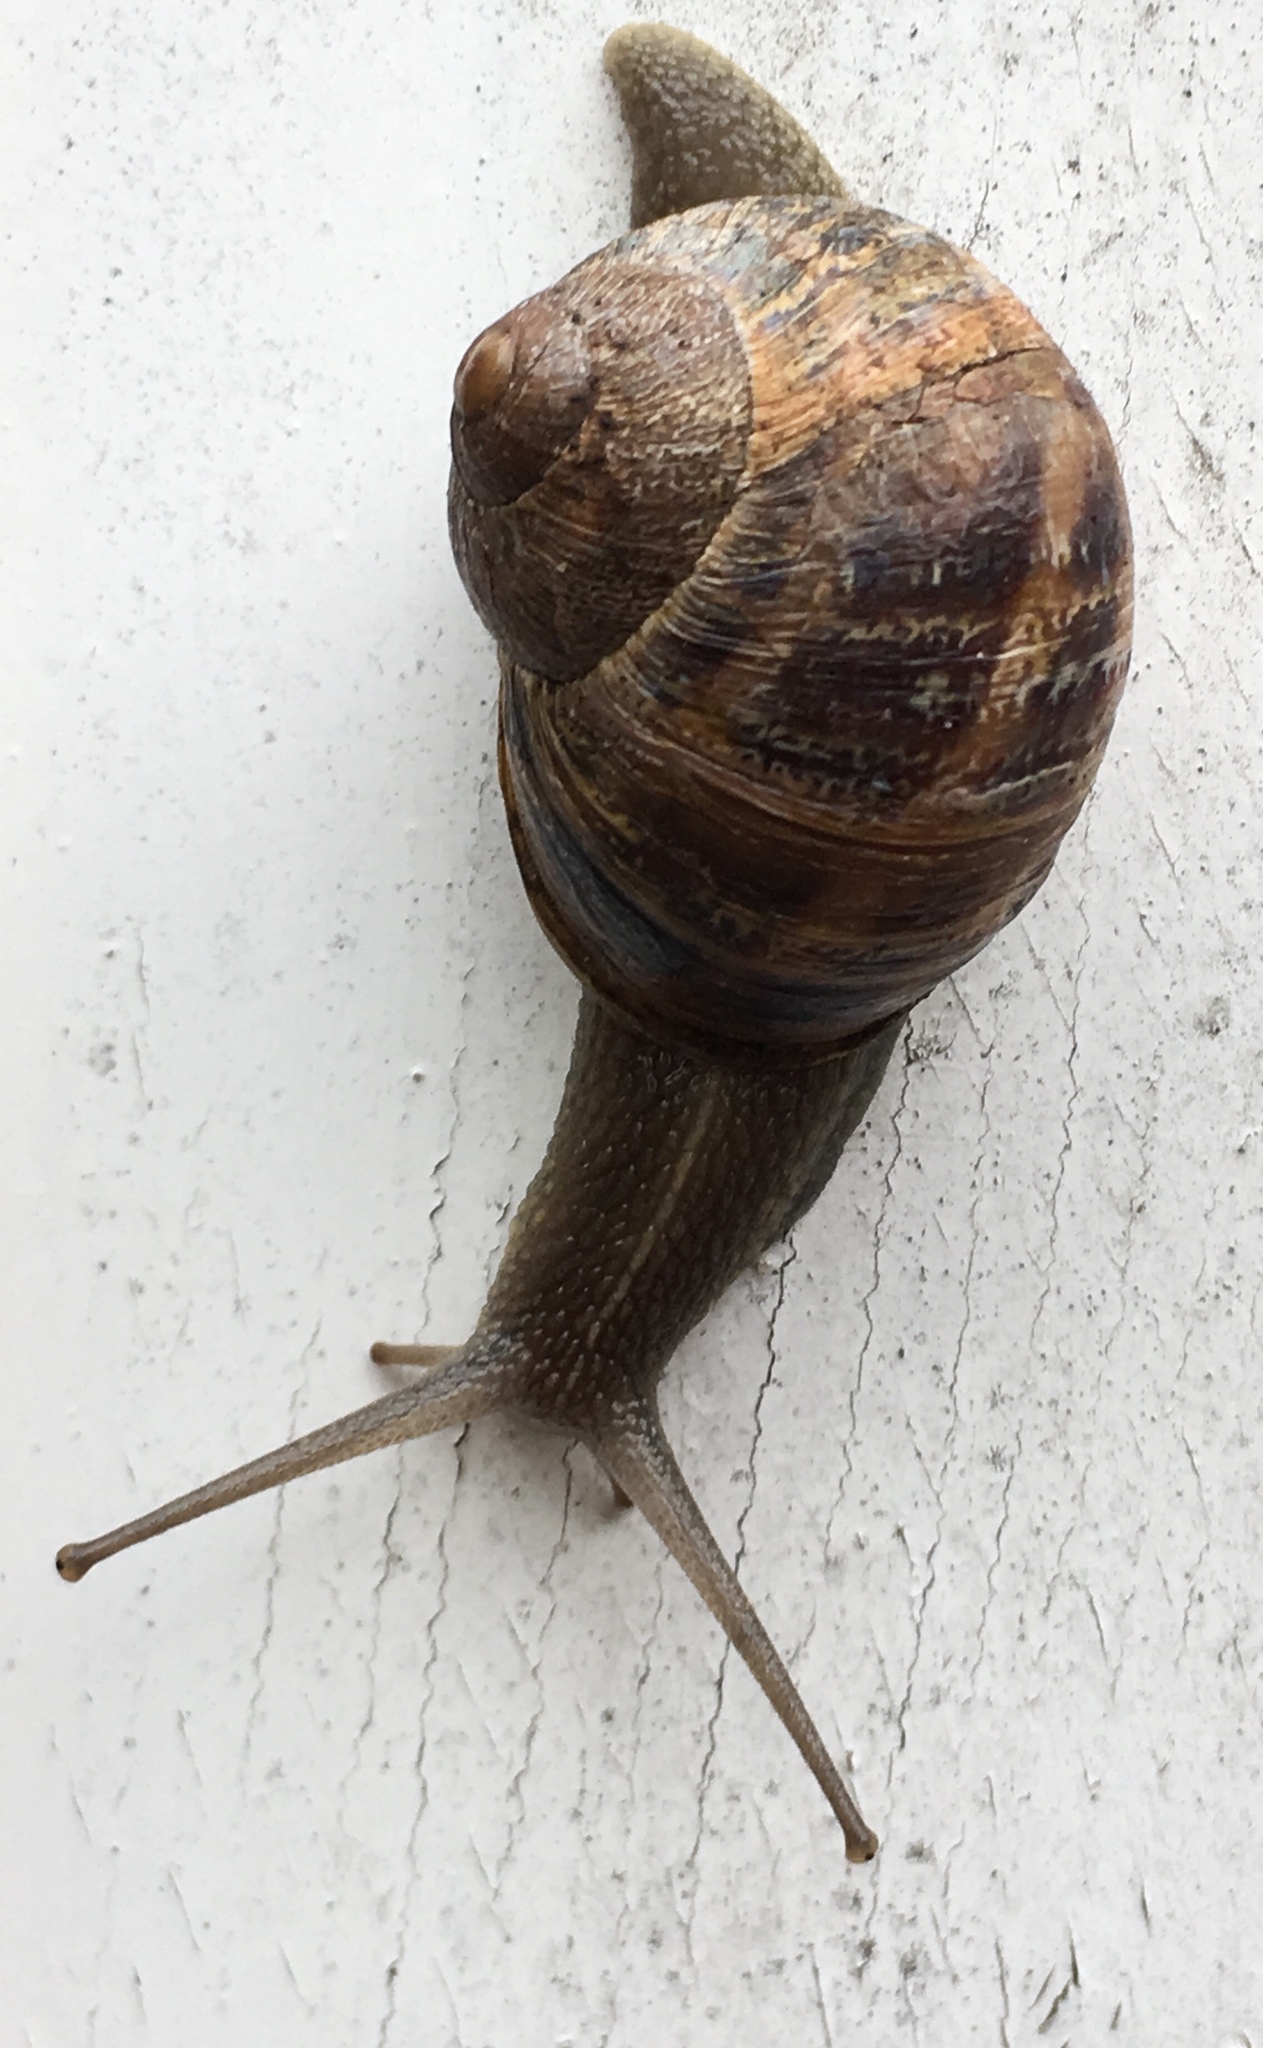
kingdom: Animalia
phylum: Mollusca
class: Gastropoda
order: Stylommatophora
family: Helicidae
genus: Cornu
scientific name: Cornu aspersum
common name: Brown garden snail
